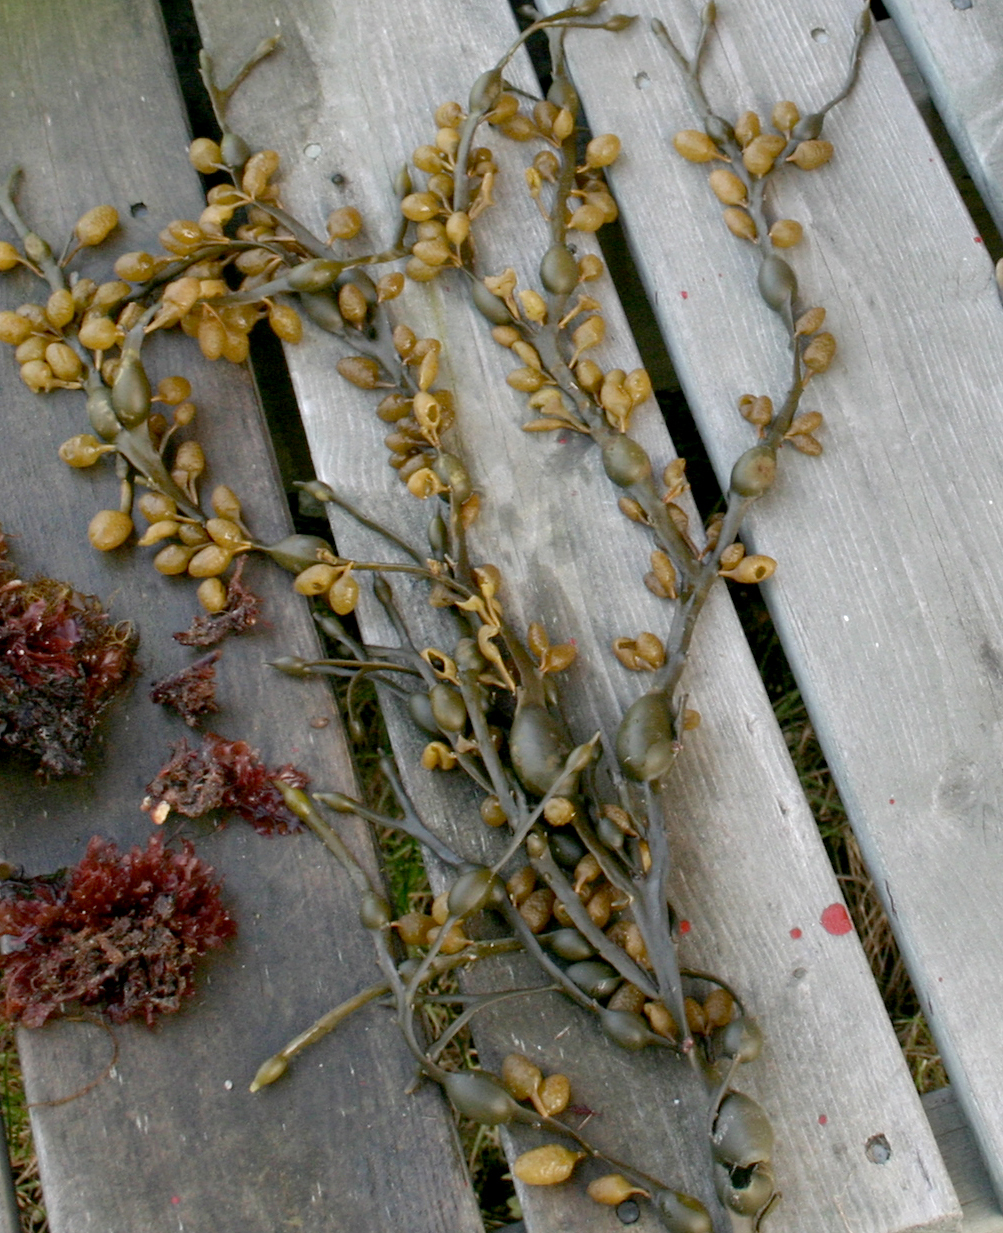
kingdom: Chromista
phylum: Ochrophyta
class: Phaeophyceae
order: Fucales
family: Fucaceae
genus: Ascophyllum
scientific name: Ascophyllum nodosum
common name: Knotted wrack
